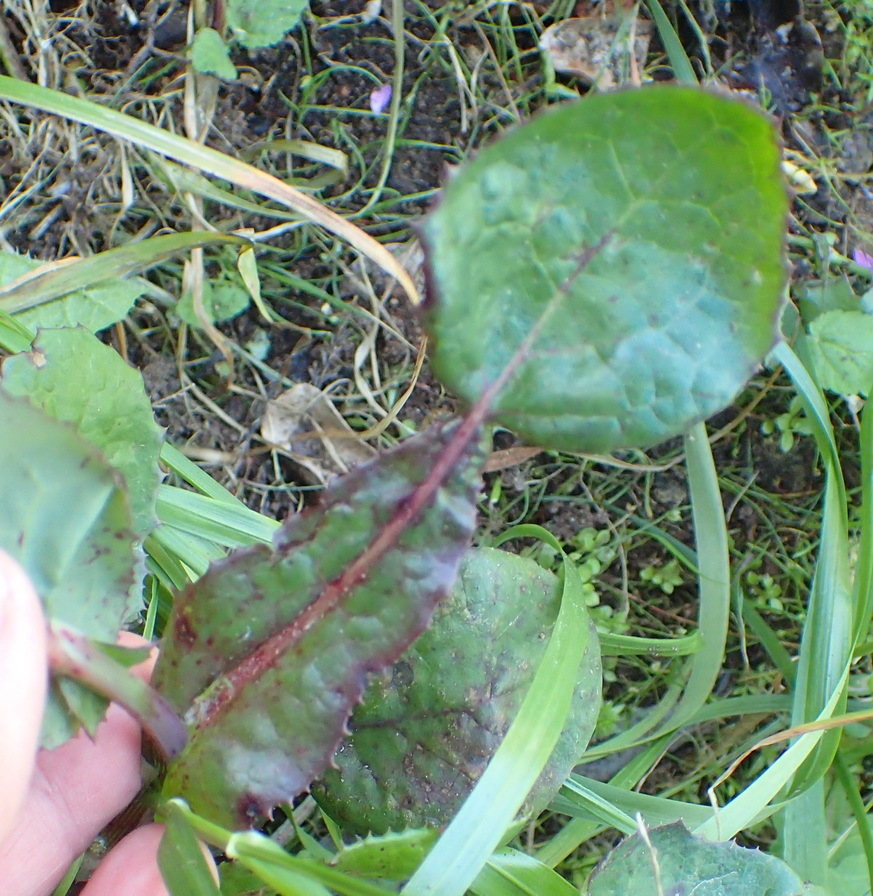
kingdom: Plantae
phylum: Tracheophyta
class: Magnoliopsida
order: Asterales
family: Asteraceae
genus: Sonchus
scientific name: Sonchus oleraceus
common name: Common sowthistle
